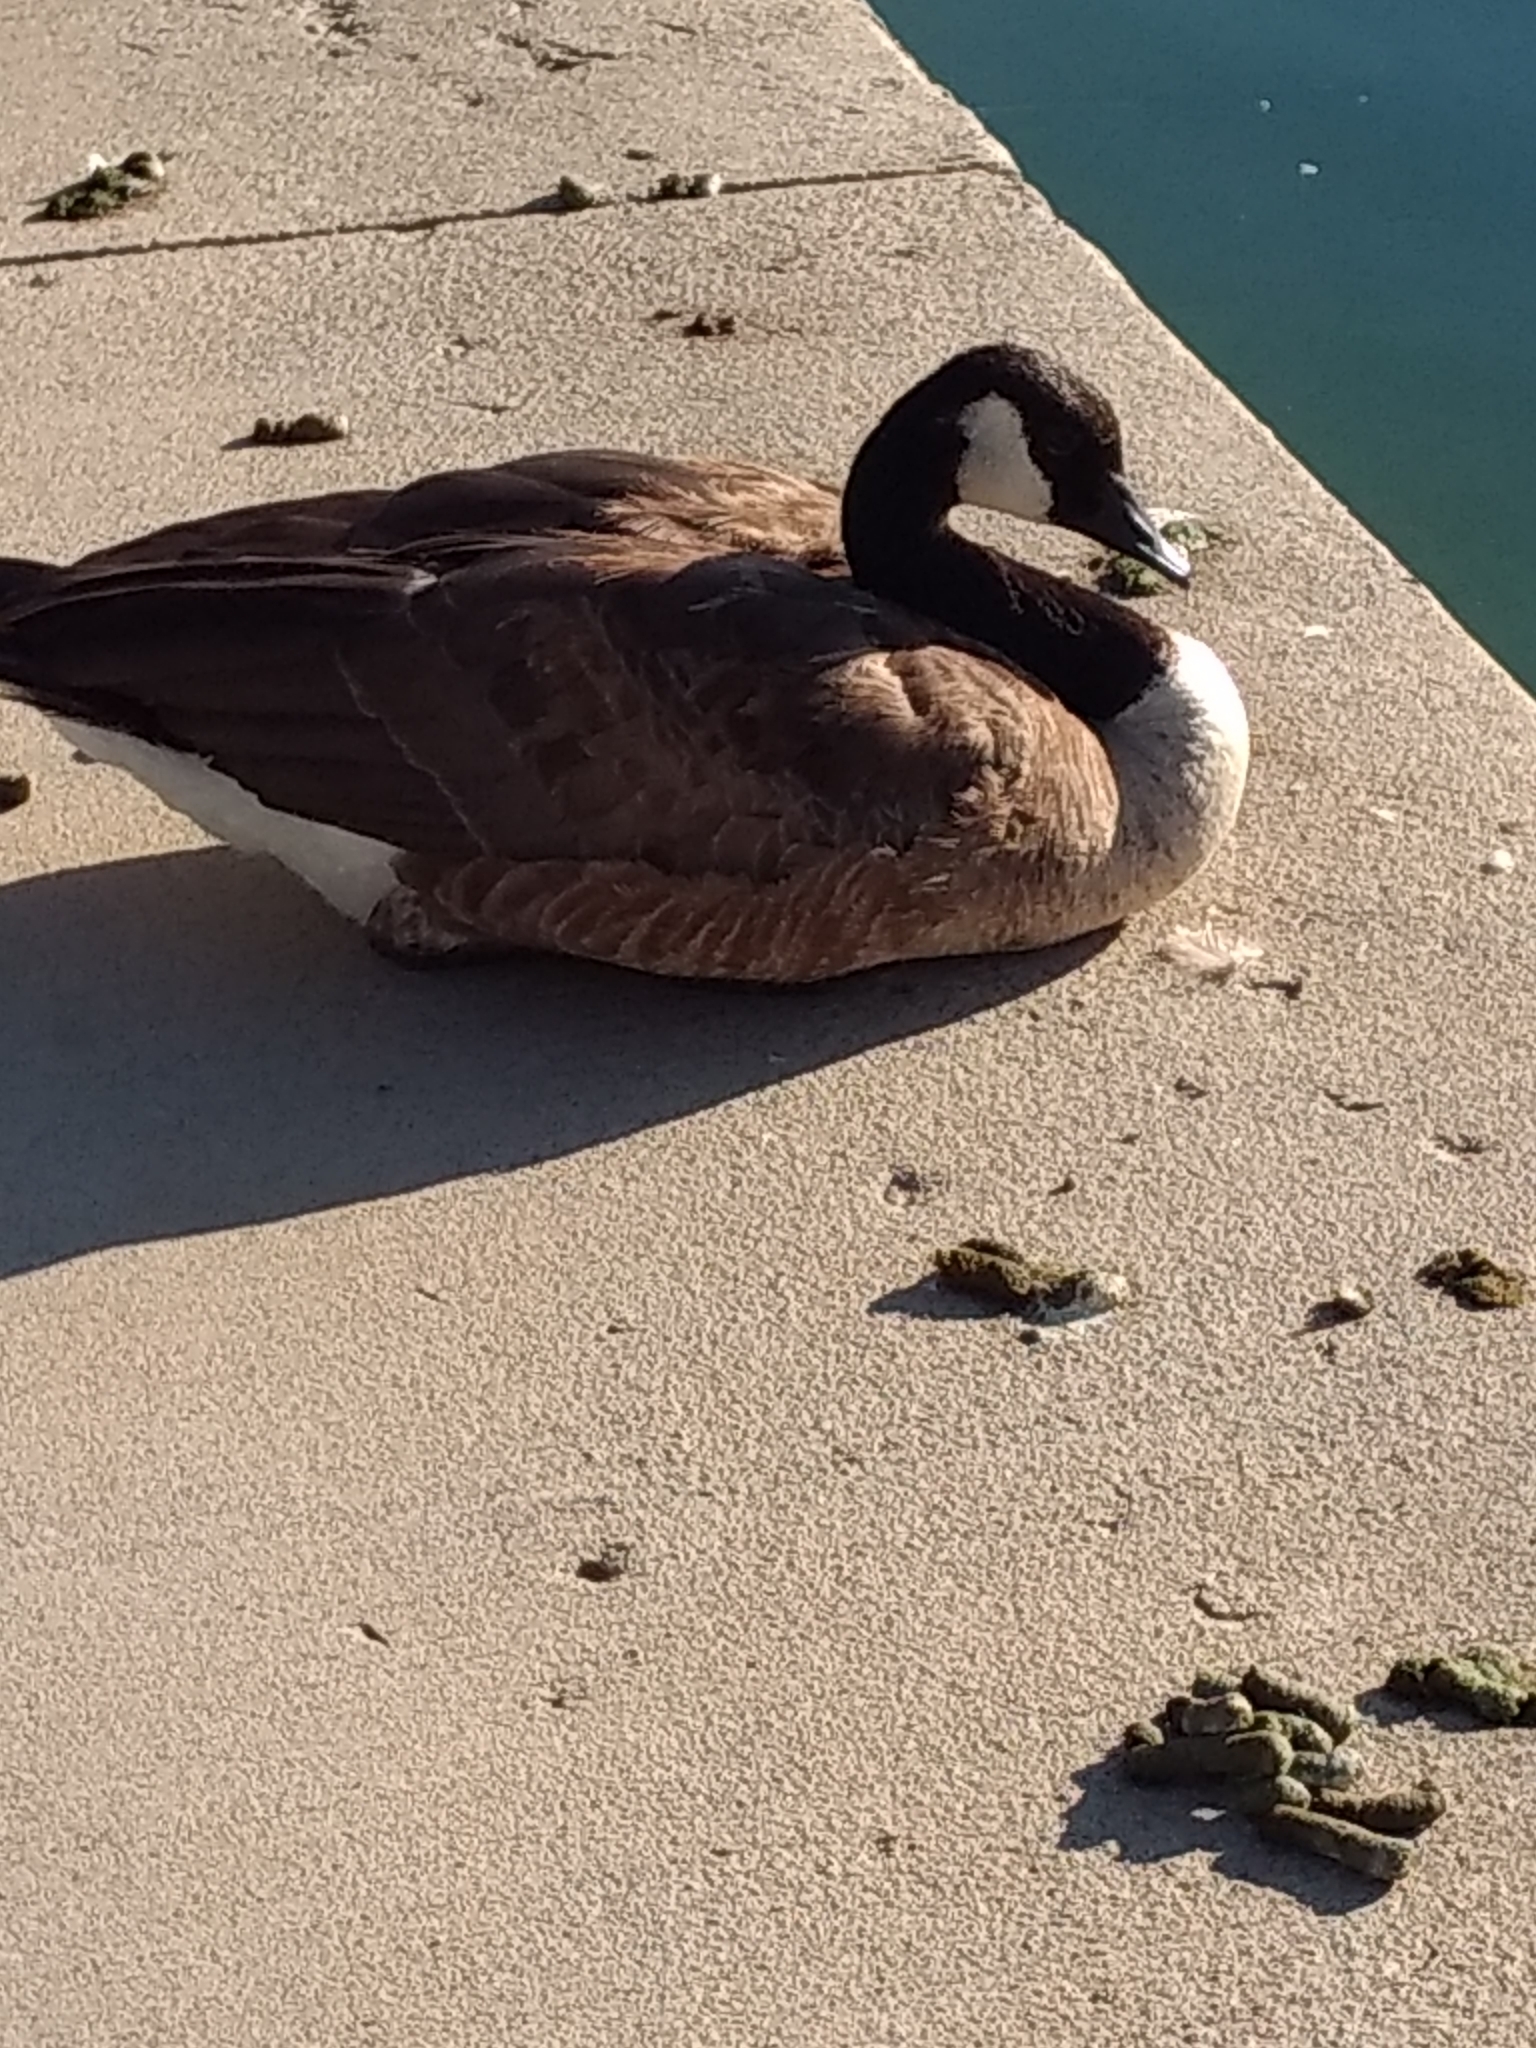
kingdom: Animalia
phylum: Chordata
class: Aves
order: Anseriformes
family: Anatidae
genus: Branta
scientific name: Branta canadensis
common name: Canada goose
